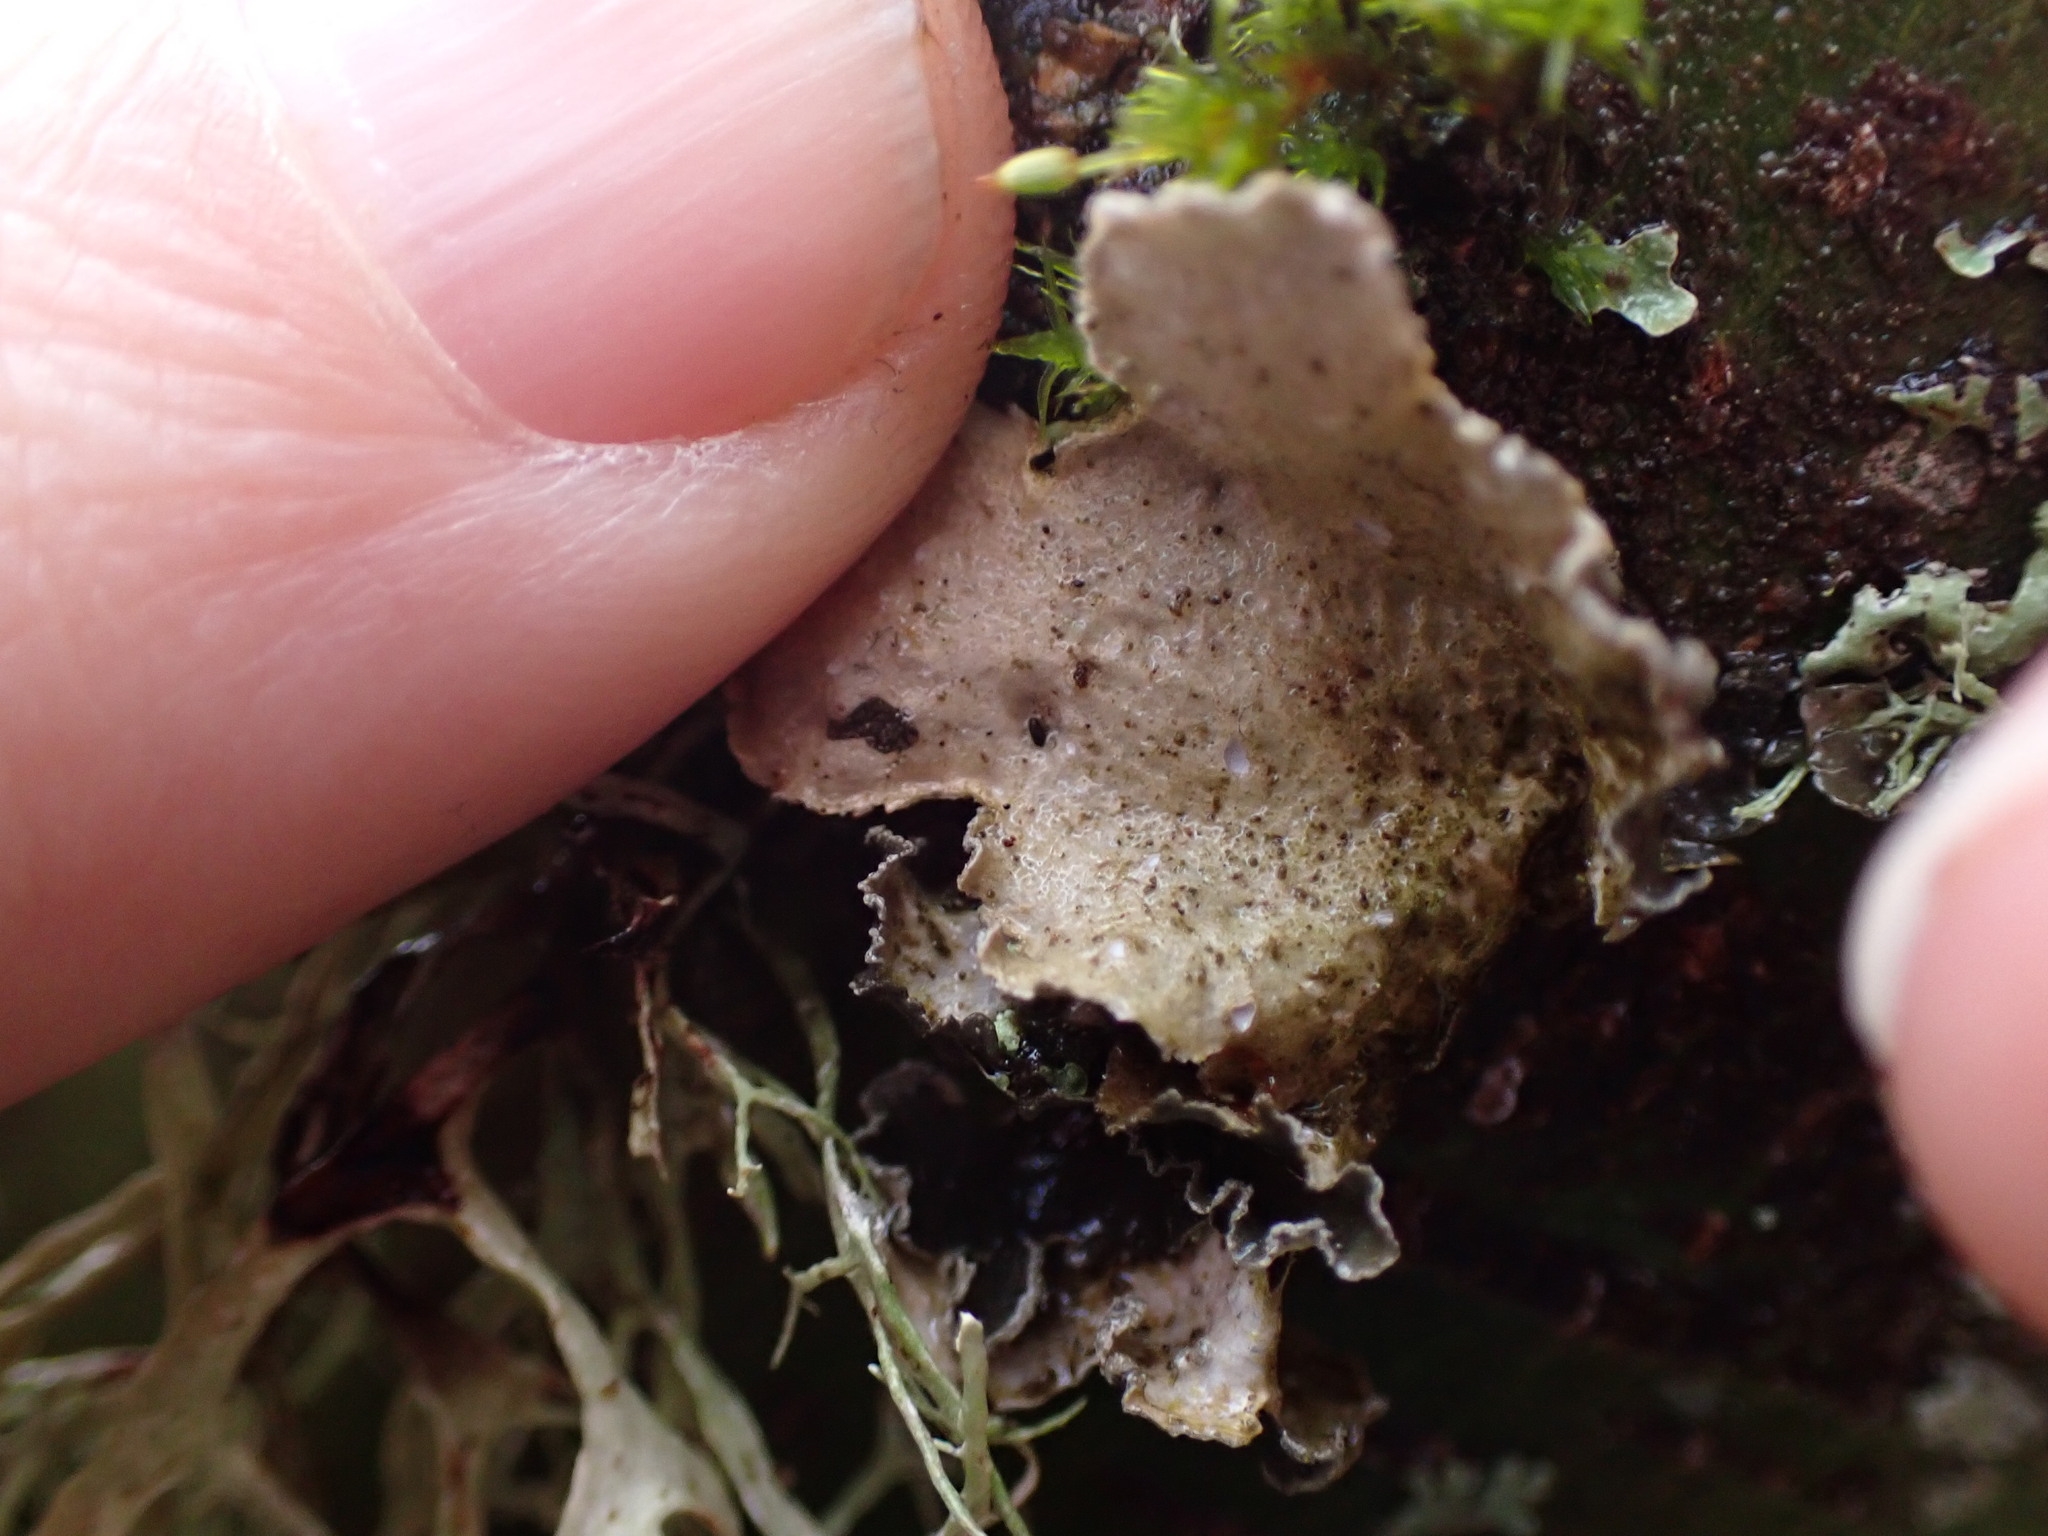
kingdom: Fungi
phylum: Ascomycota
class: Lecanoromycetes
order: Peltigerales
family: Lobariaceae
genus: Sticta
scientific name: Sticta limbata
